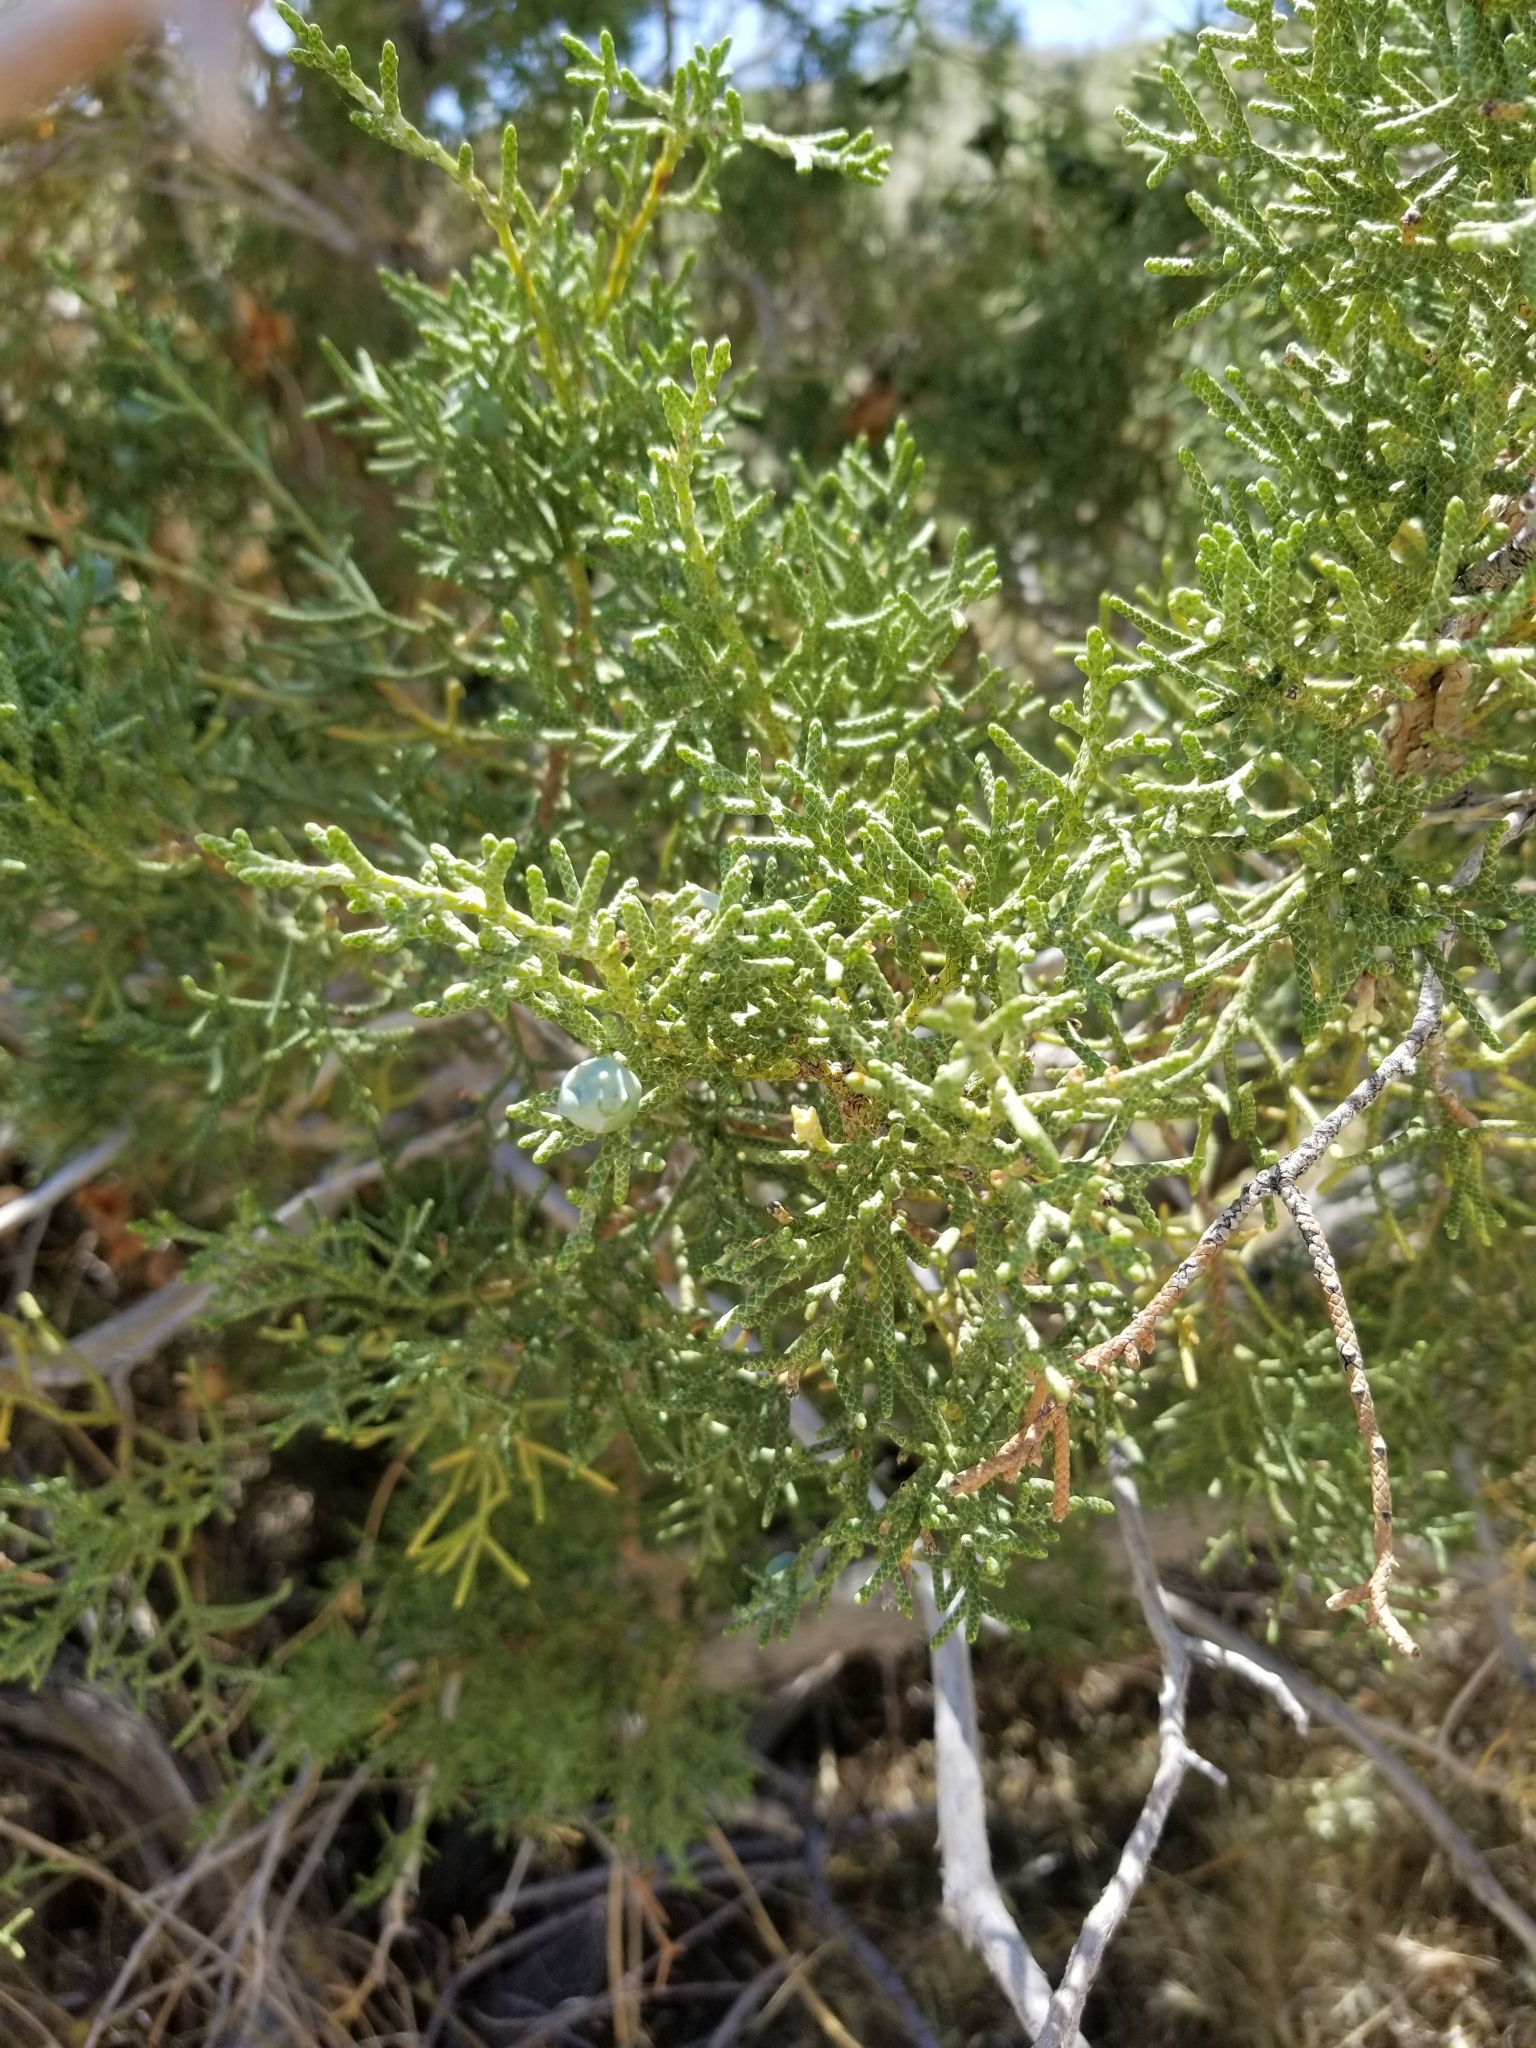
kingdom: Plantae
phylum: Tracheophyta
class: Pinopsida
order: Pinales
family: Cupressaceae
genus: Juniperus
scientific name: Juniperus californica
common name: California juniper
